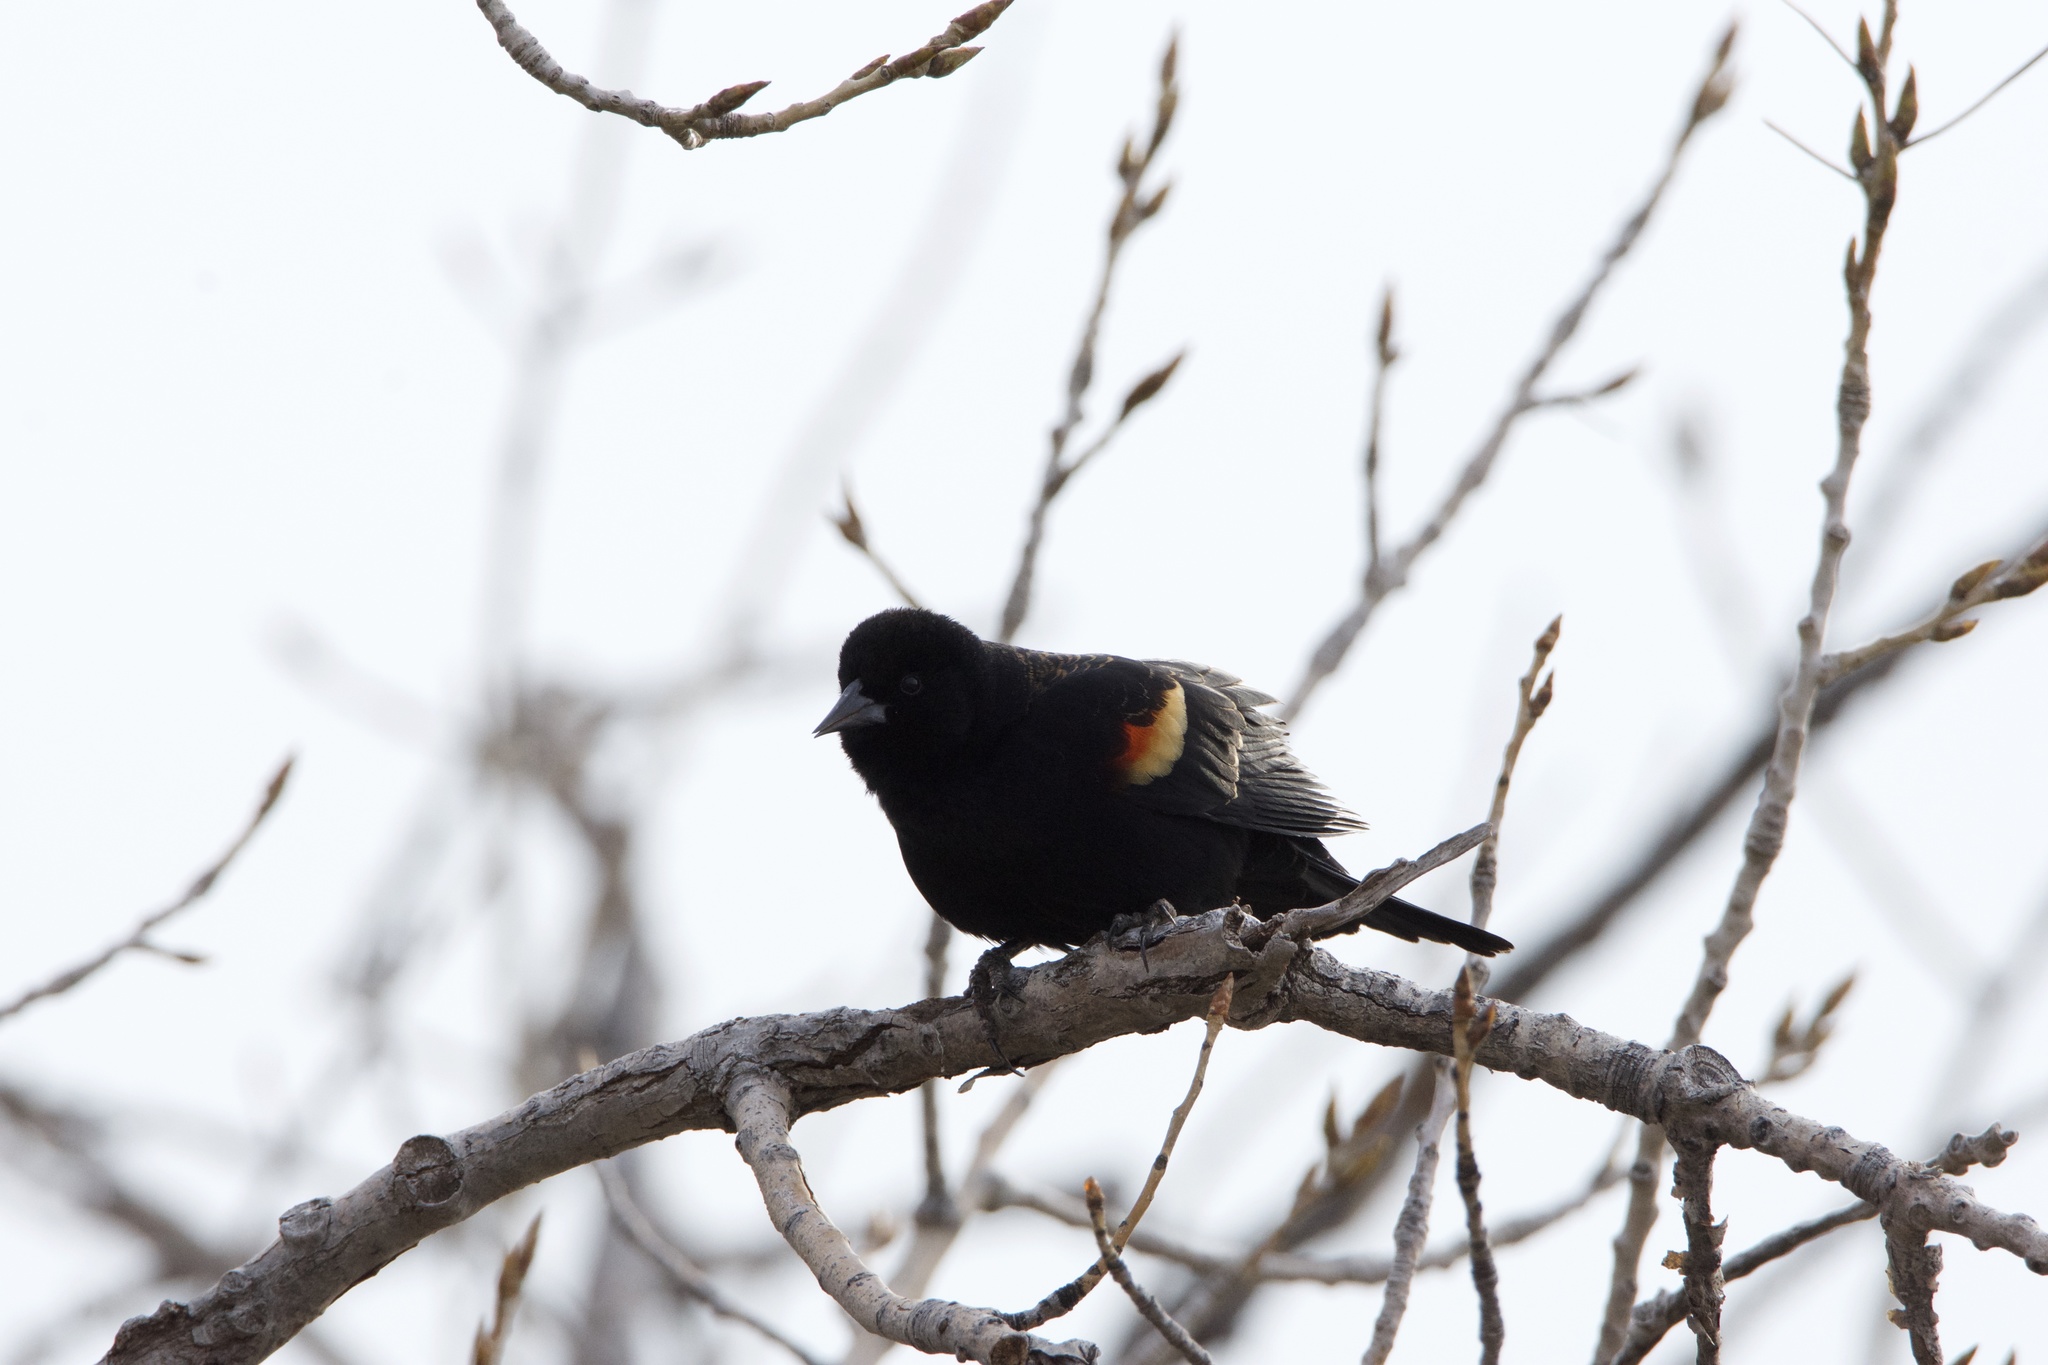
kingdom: Animalia
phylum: Chordata
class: Aves
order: Passeriformes
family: Icteridae
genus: Agelaius
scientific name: Agelaius phoeniceus
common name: Red-winged blackbird
